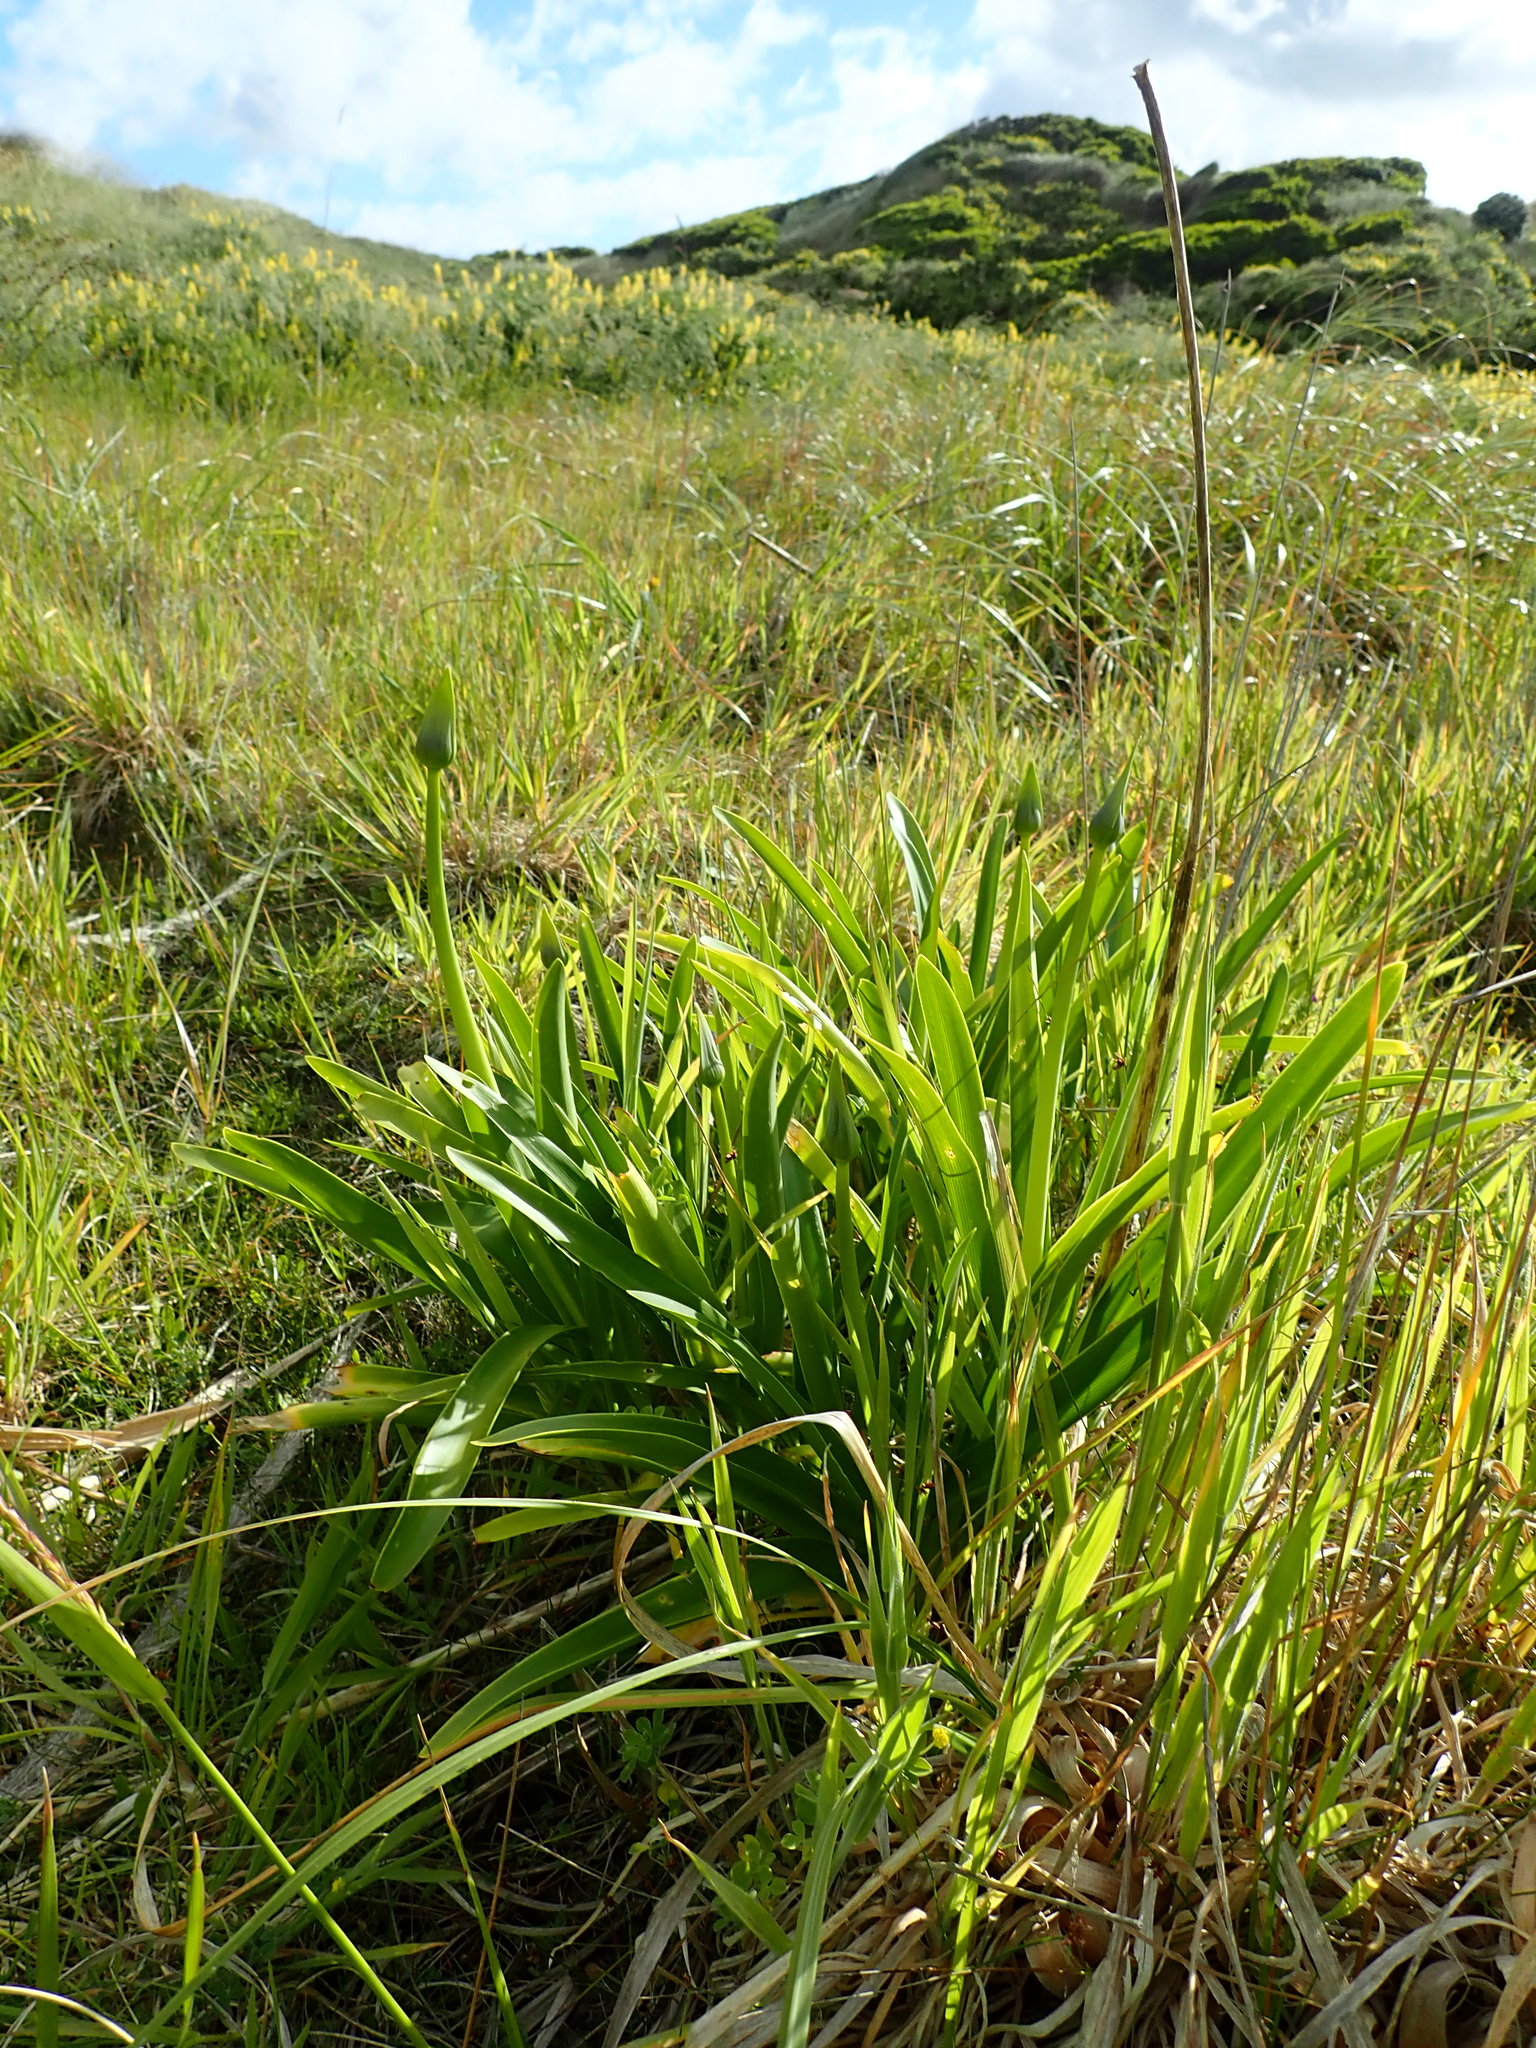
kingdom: Plantae
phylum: Tracheophyta
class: Liliopsida
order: Asparagales
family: Amaryllidaceae
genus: Agapanthus
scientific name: Agapanthus praecox
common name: African-lily
